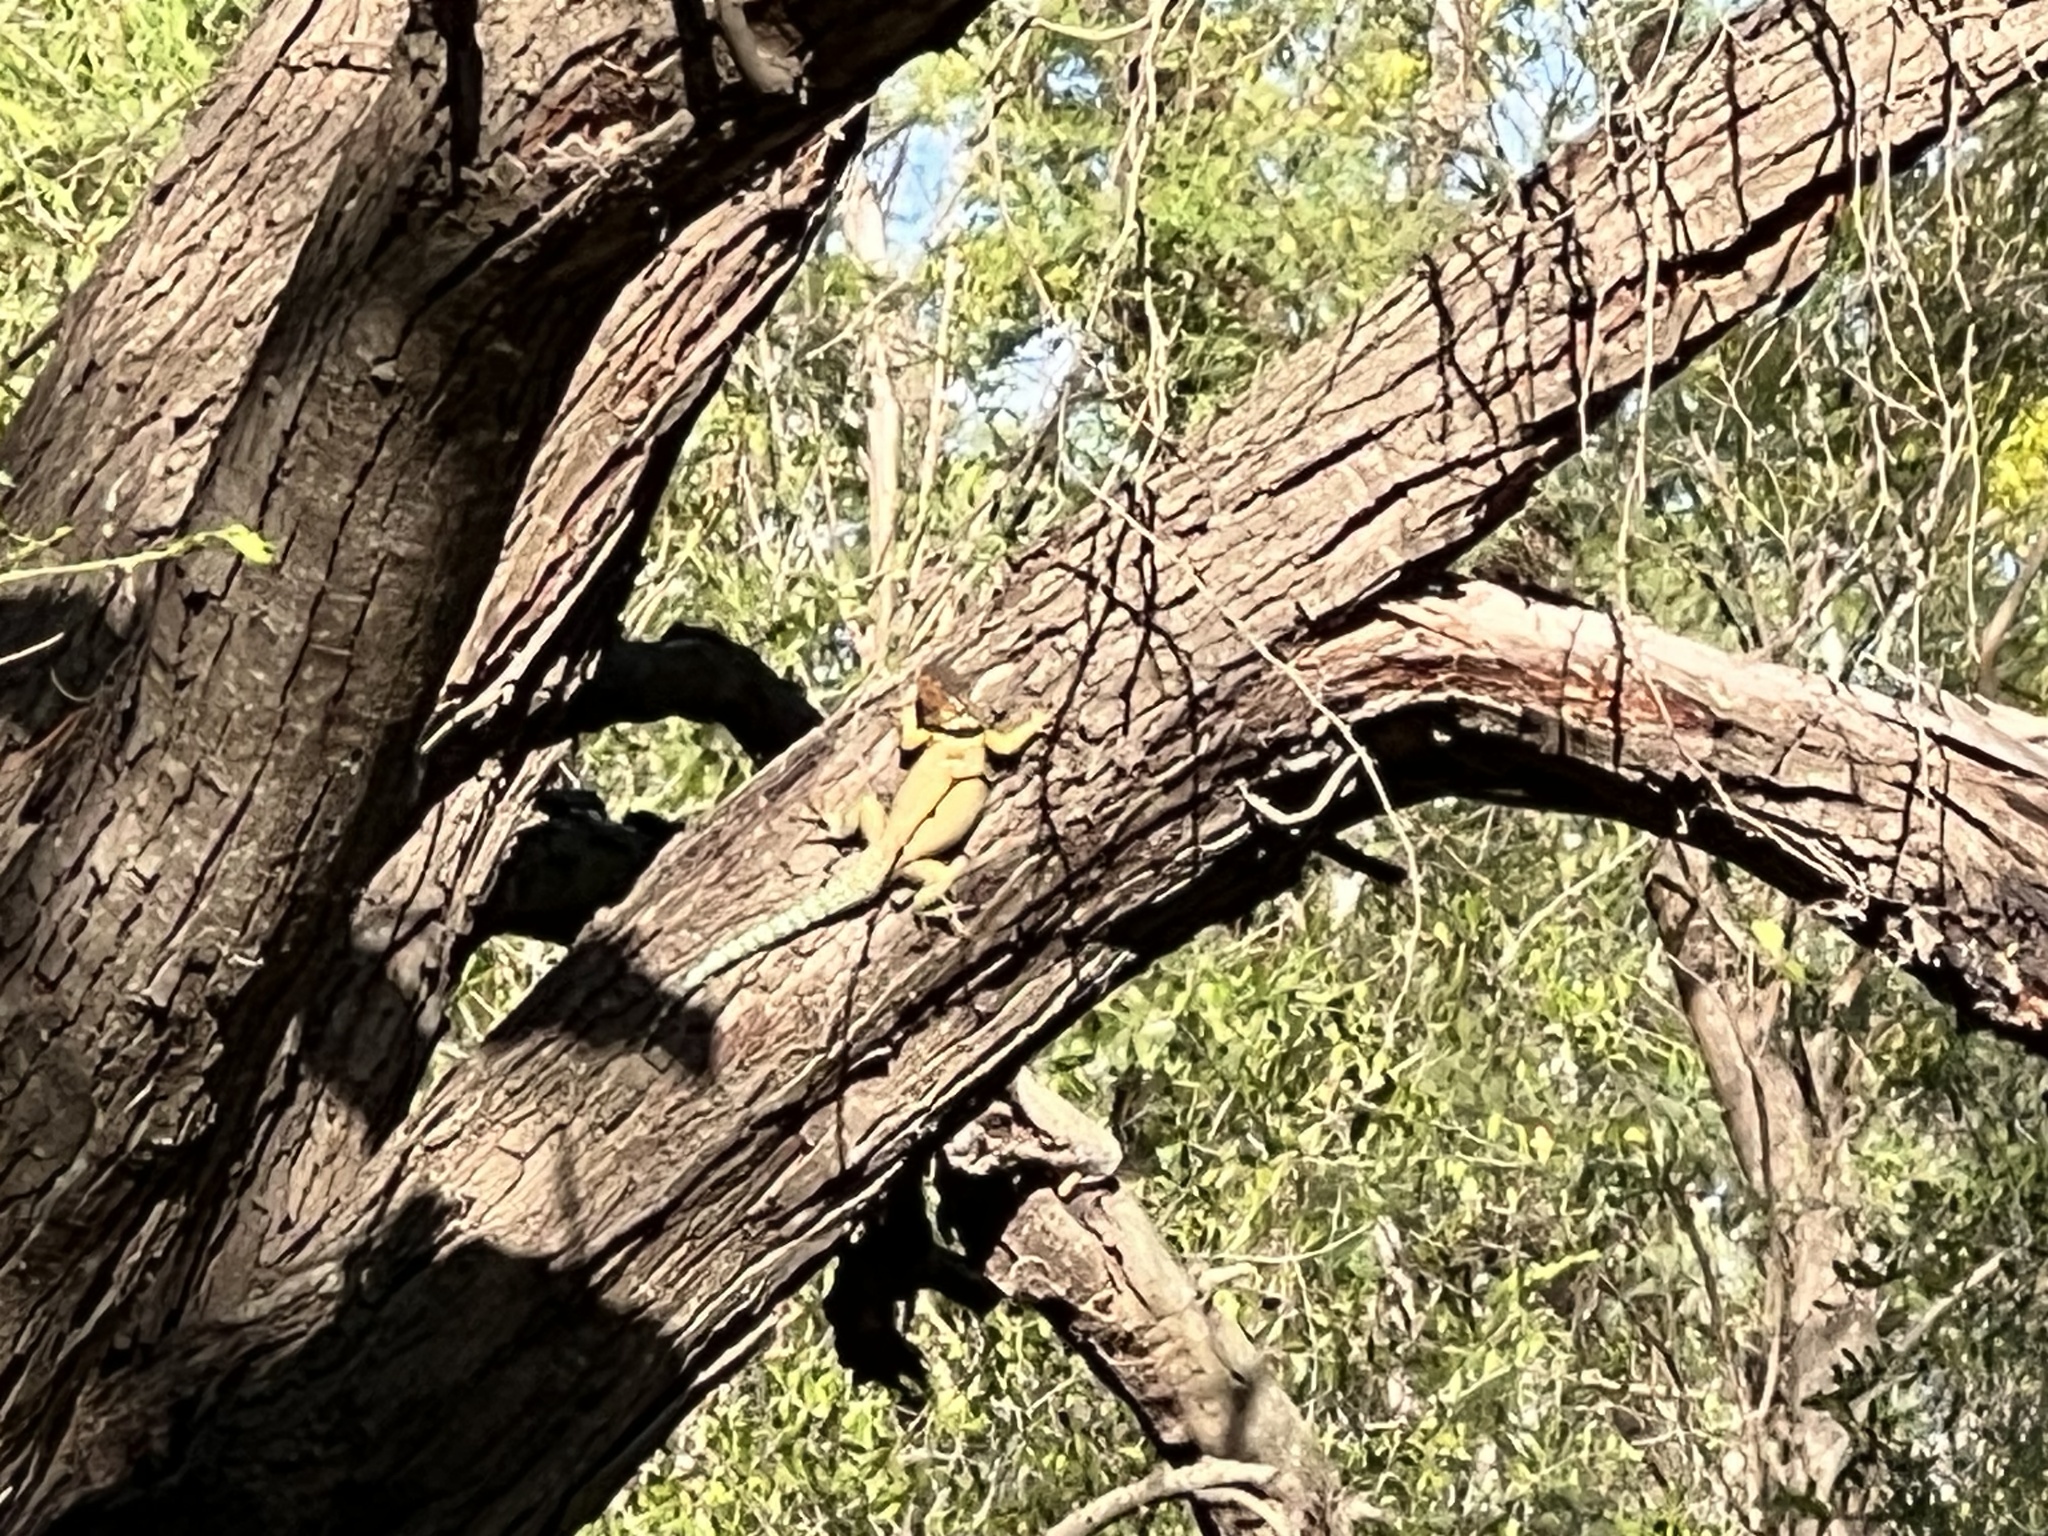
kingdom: Animalia
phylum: Chordata
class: Squamata
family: Phrynosomatidae
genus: Sceloporus
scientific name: Sceloporus cyanogenys
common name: Blue spiny lizard
